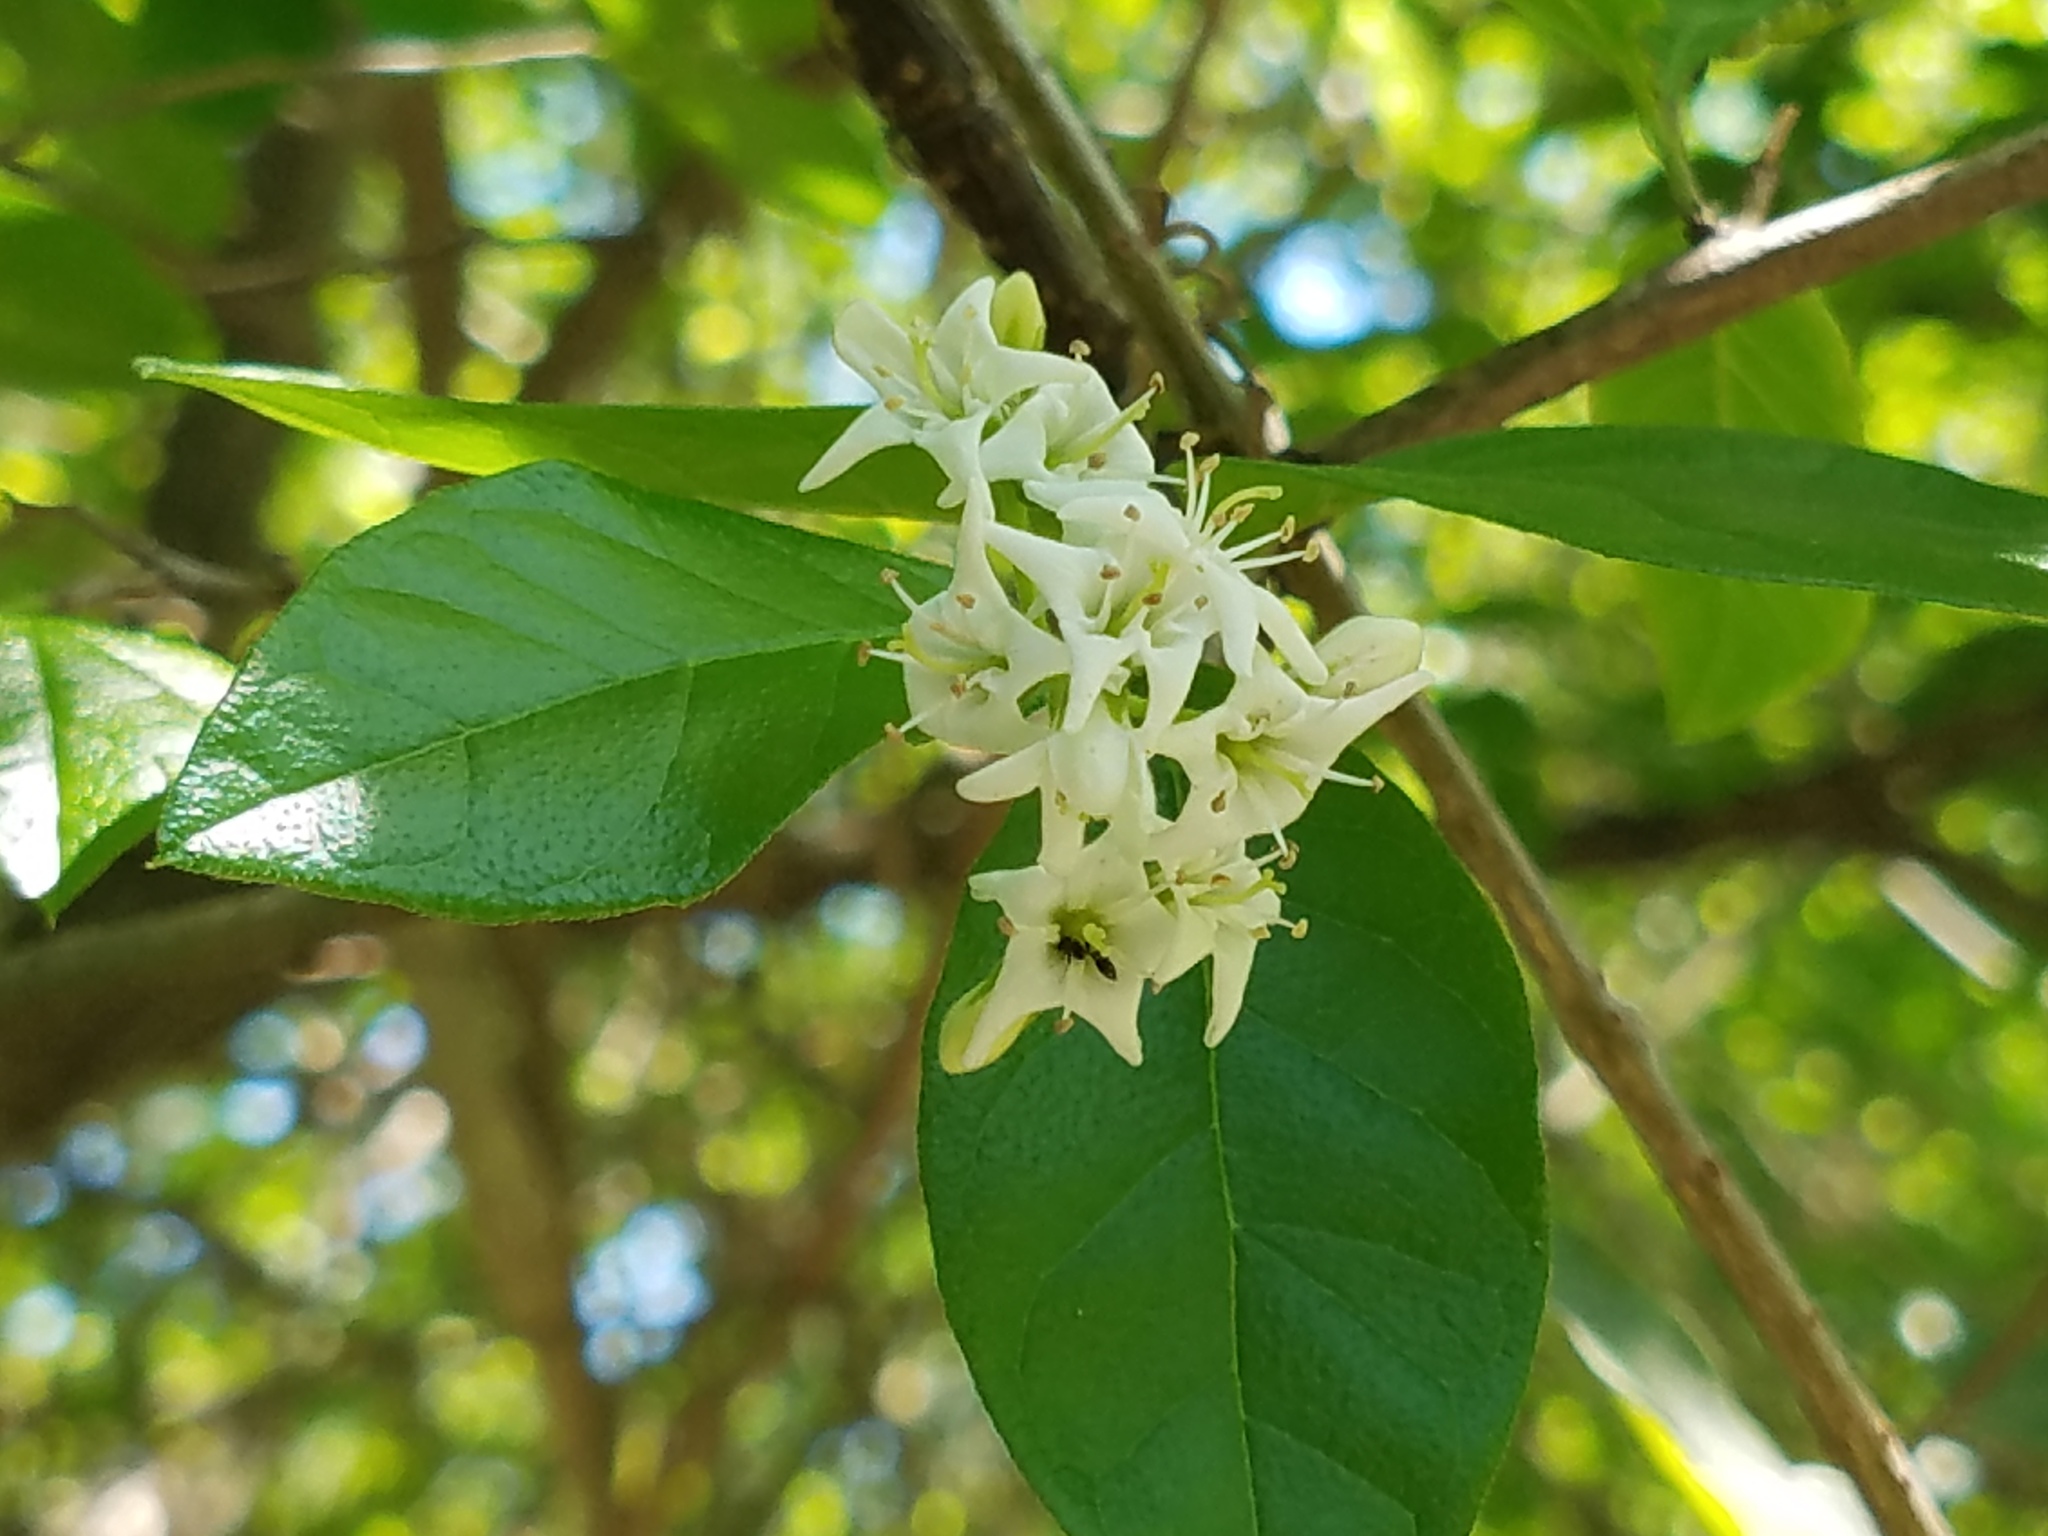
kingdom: Plantae
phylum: Tracheophyta
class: Magnoliopsida
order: Boraginales
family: Ehretiaceae
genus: Ehretia
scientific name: Ehretia anacua
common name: Sugarberry
